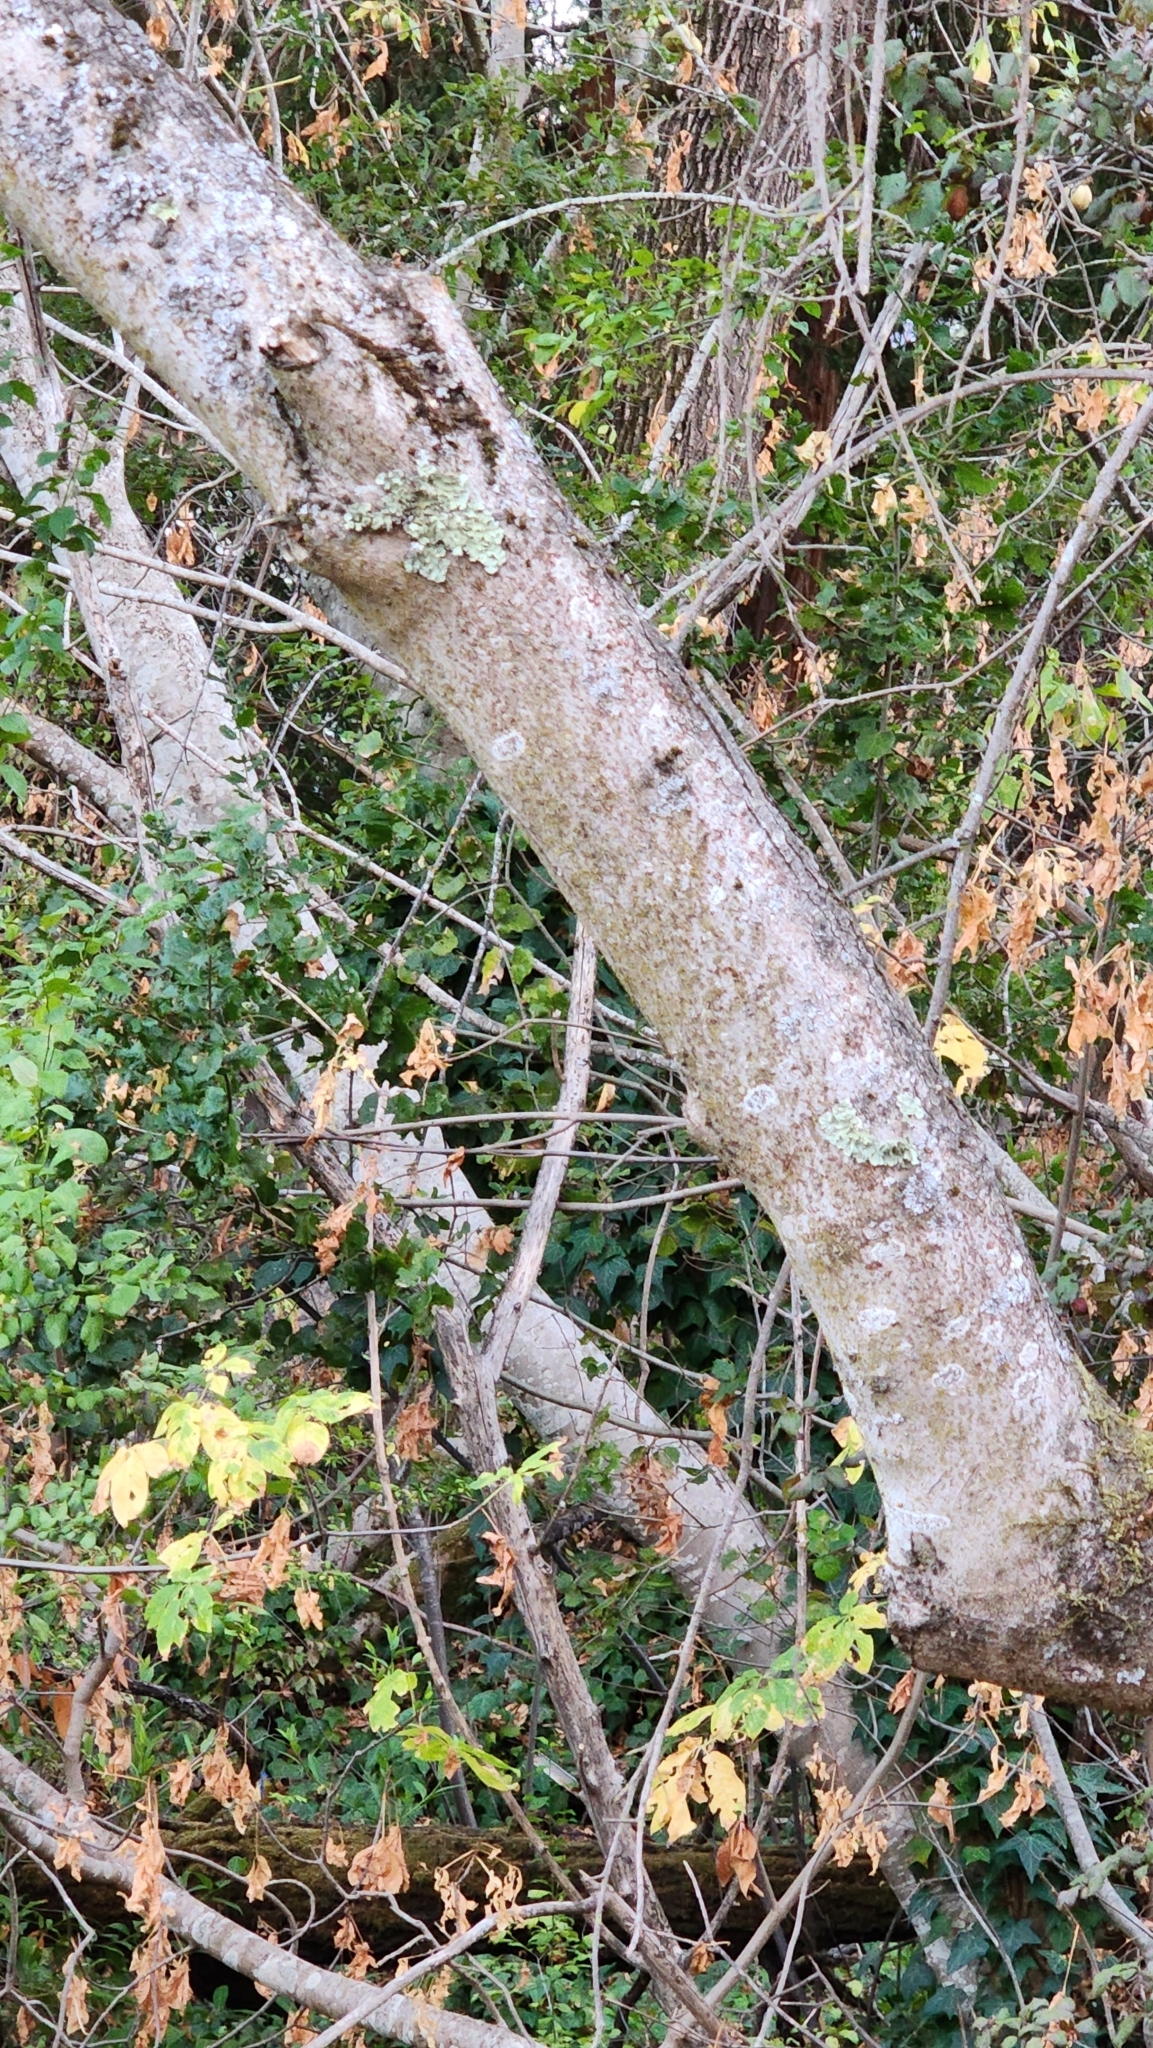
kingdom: Plantae
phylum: Tracheophyta
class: Magnoliopsida
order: Sapindales
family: Sapindaceae
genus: Aesculus
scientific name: Aesculus californica
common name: California buckeye
